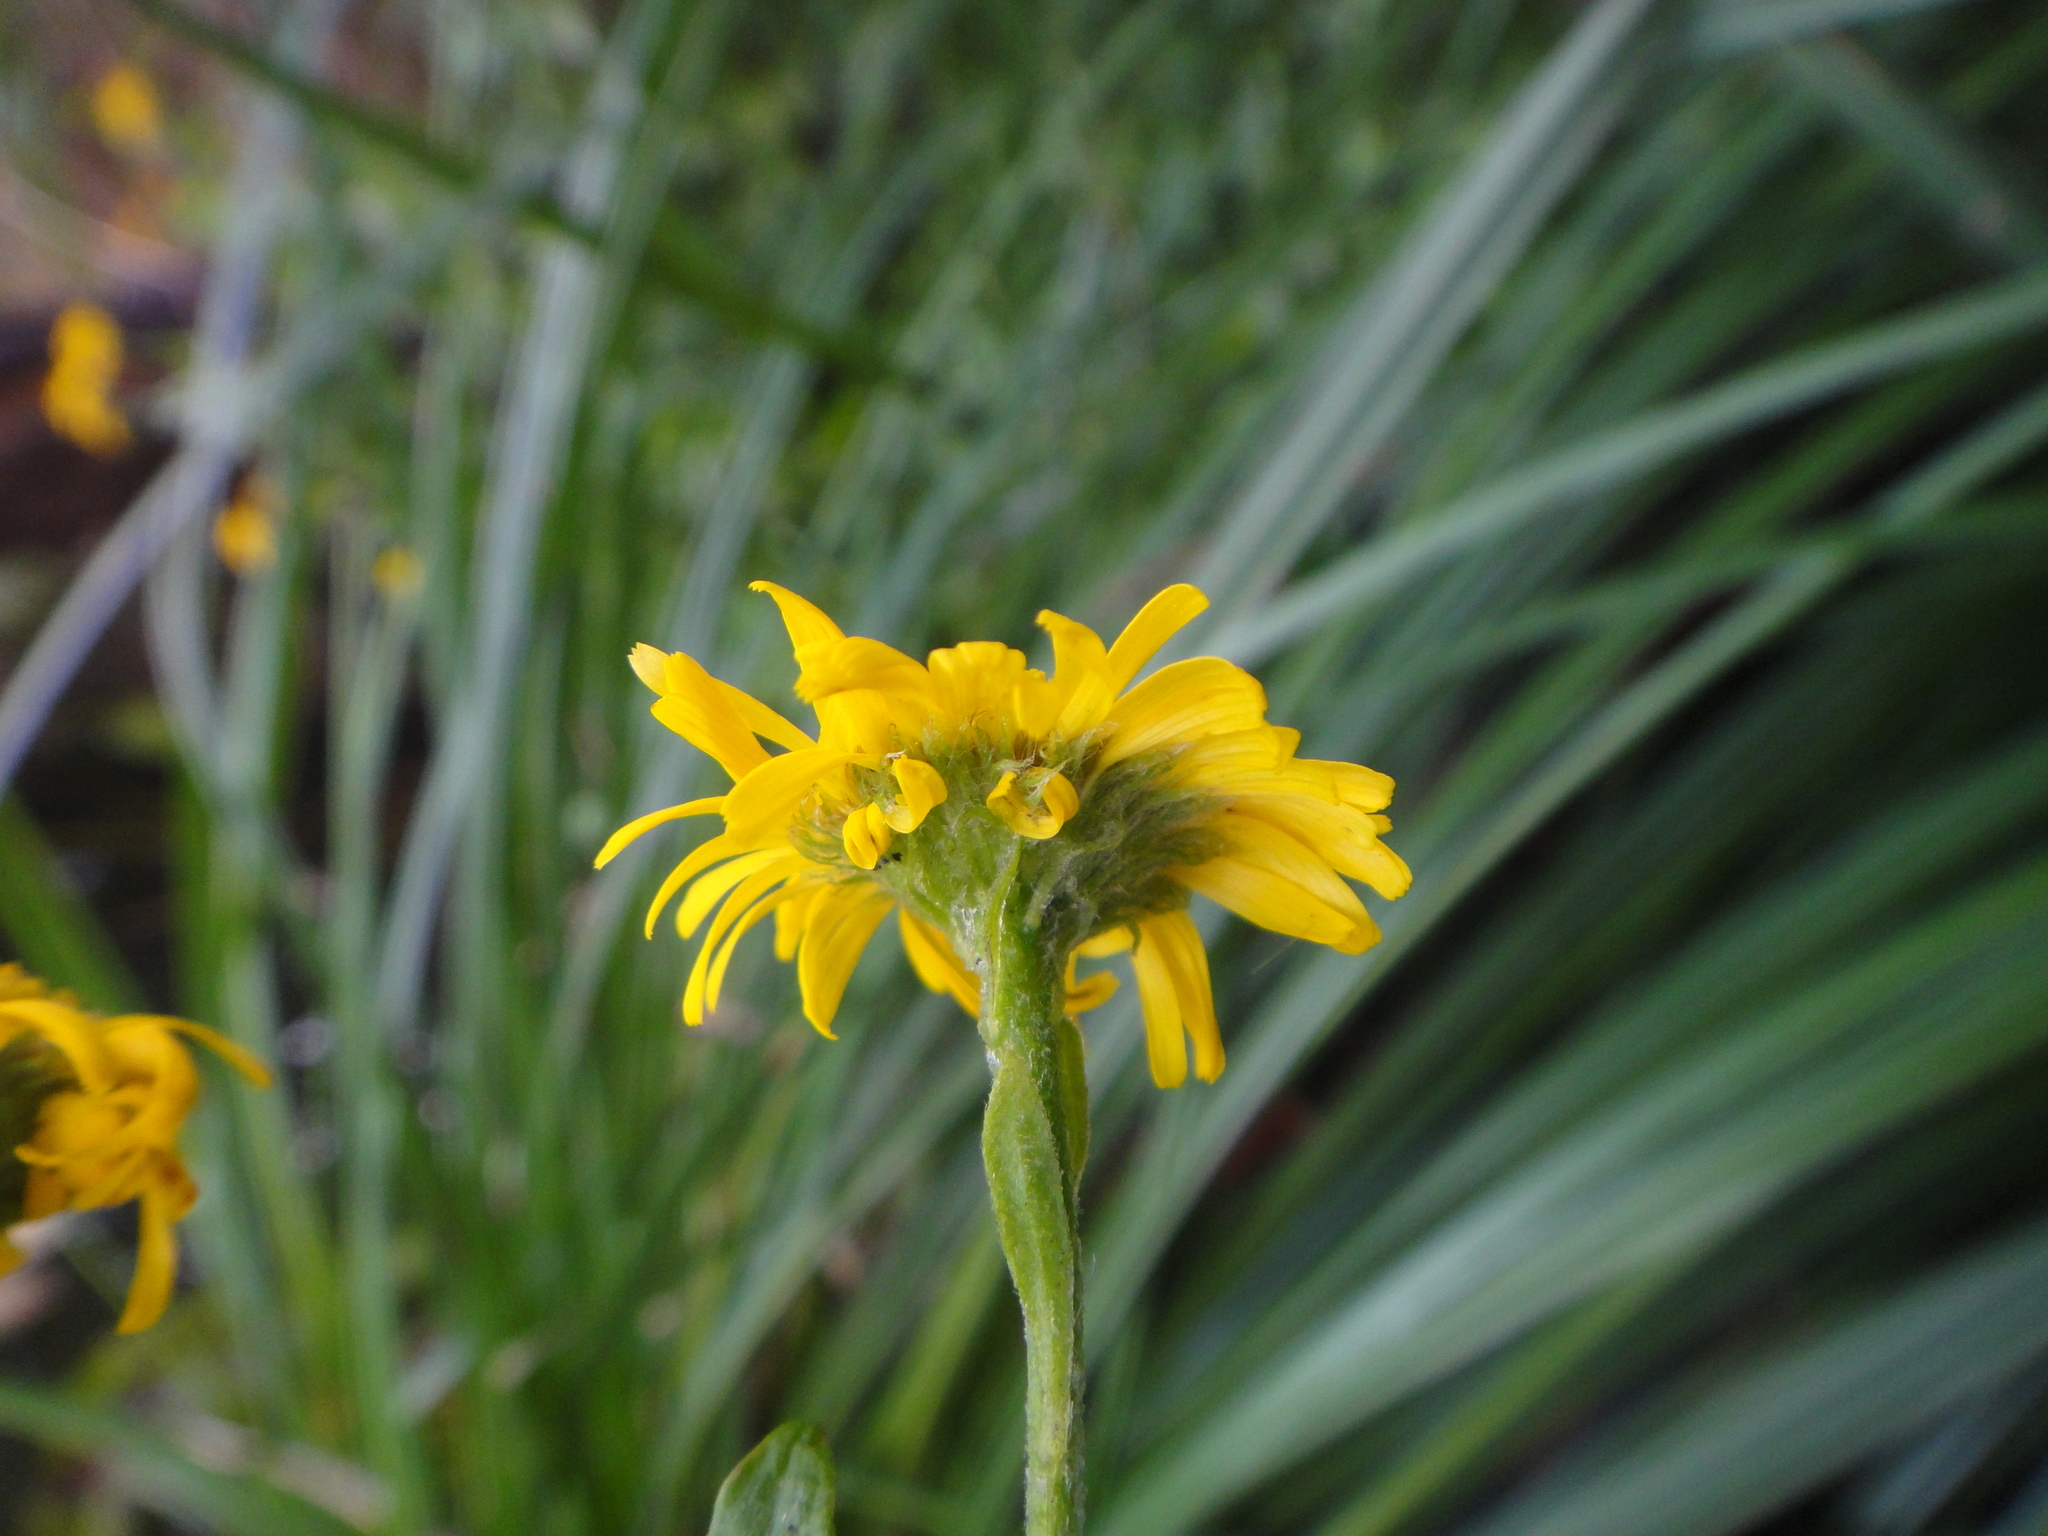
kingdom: Plantae
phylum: Tracheophyta
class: Magnoliopsida
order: Asterales
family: Asteraceae
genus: Pulicaria
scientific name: Pulicaria dysenterica
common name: Common fleabane
